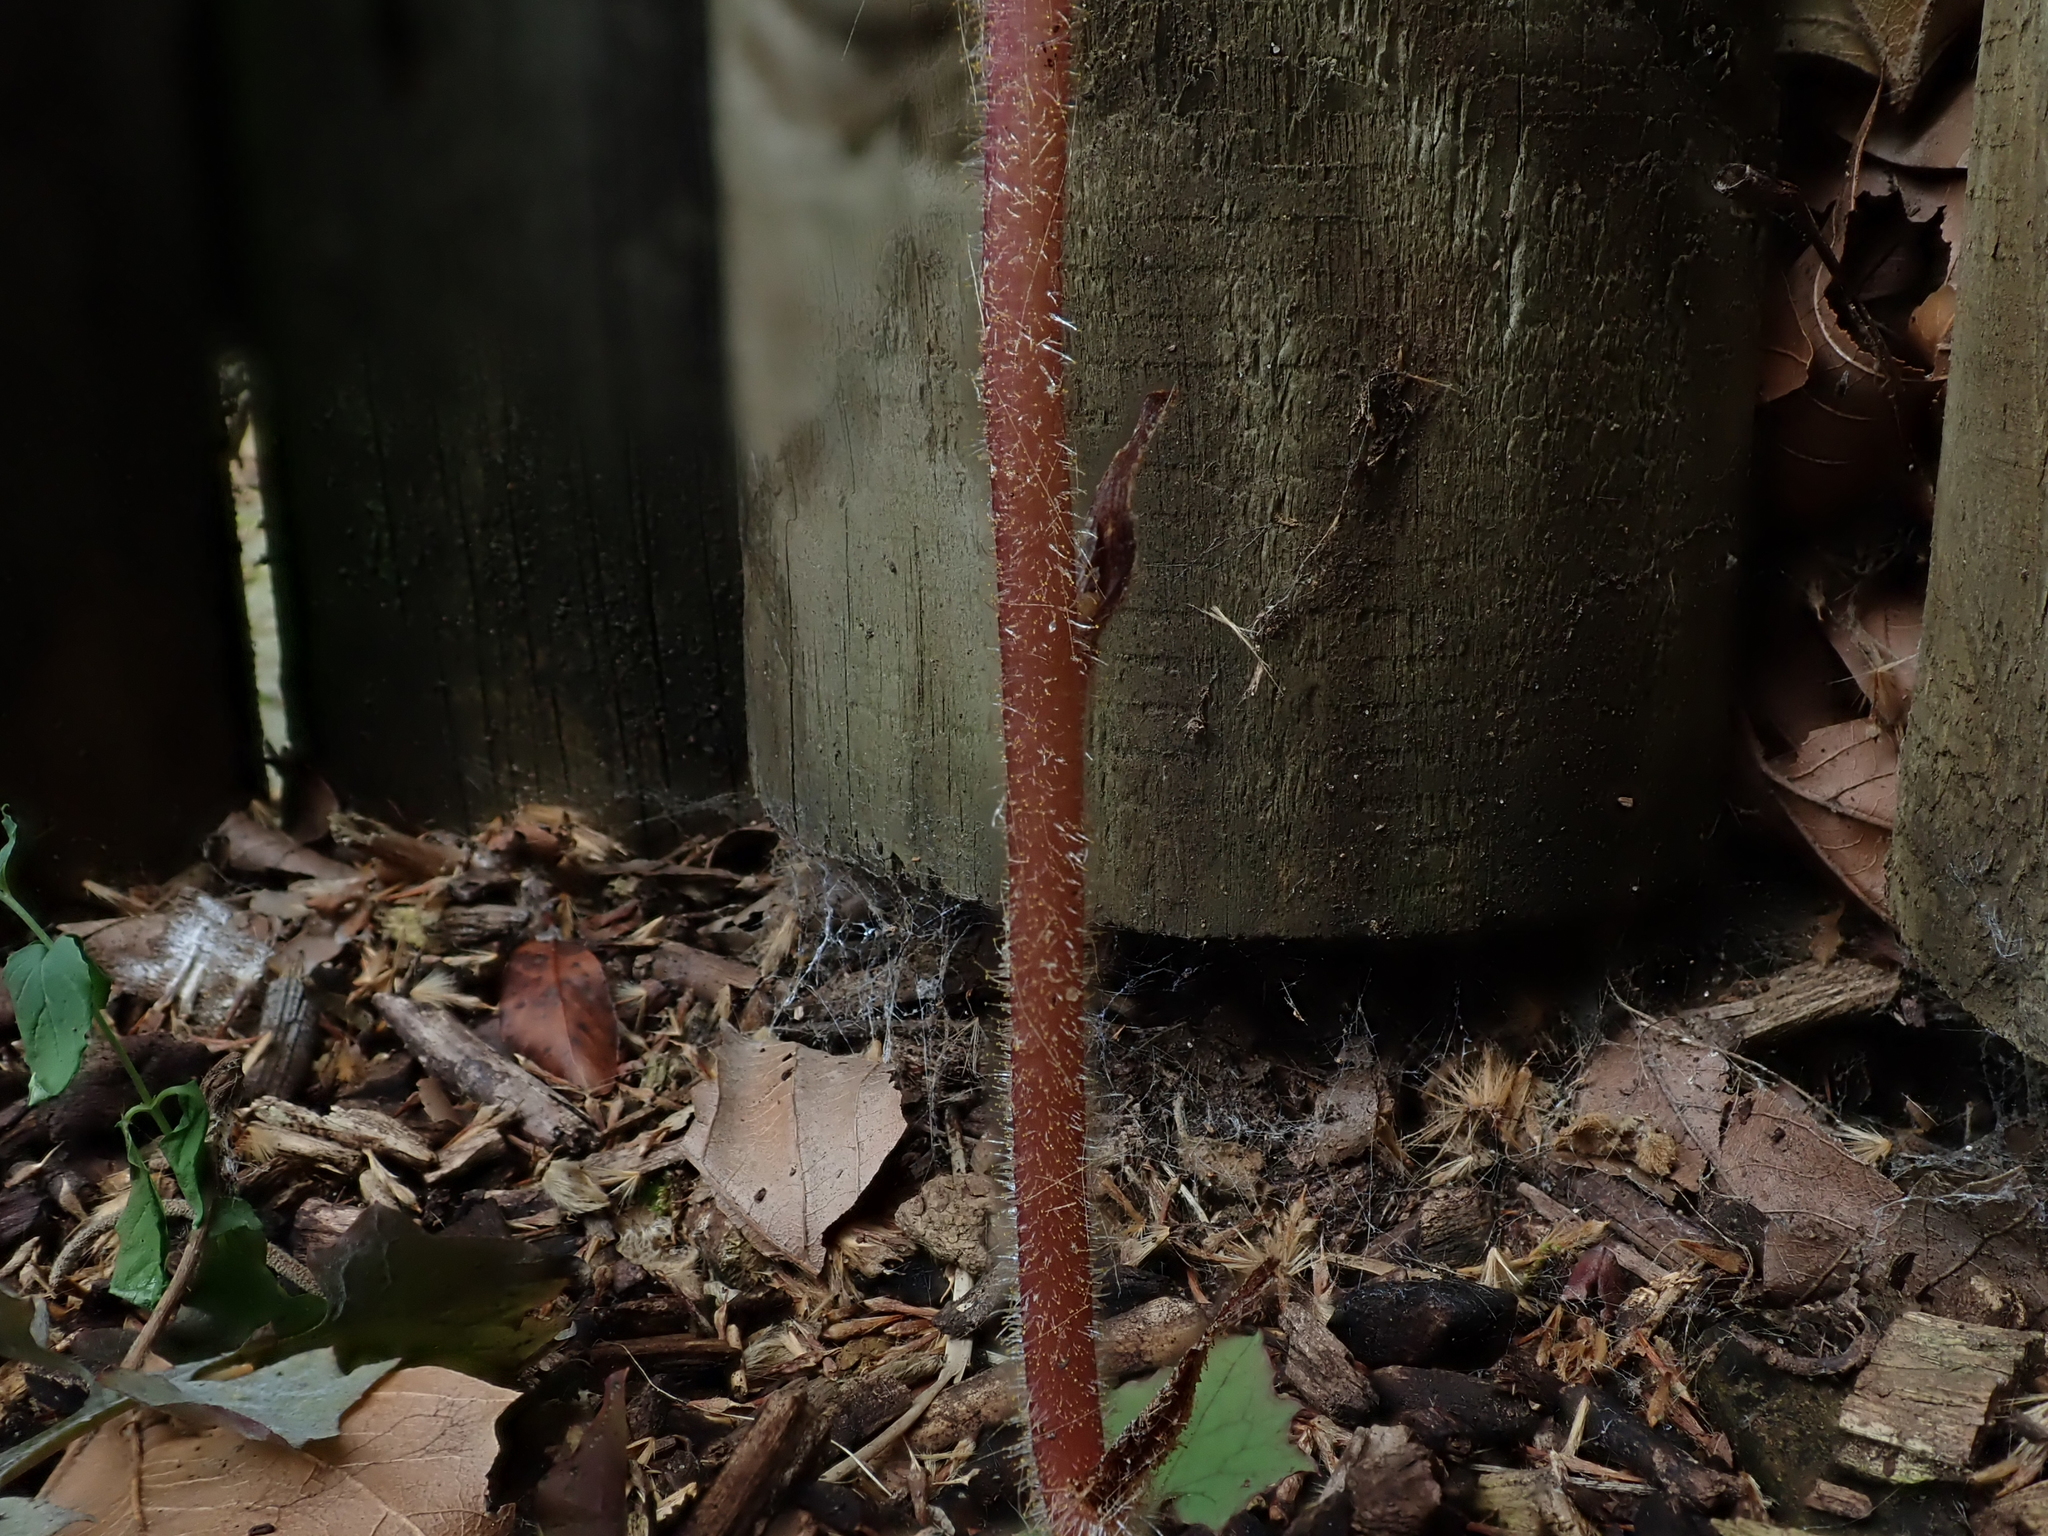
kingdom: Plantae
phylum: Tracheophyta
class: Magnoliopsida
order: Lamiales
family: Orobanchaceae
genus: Orobanche
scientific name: Orobanche minor
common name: Common broomrape
